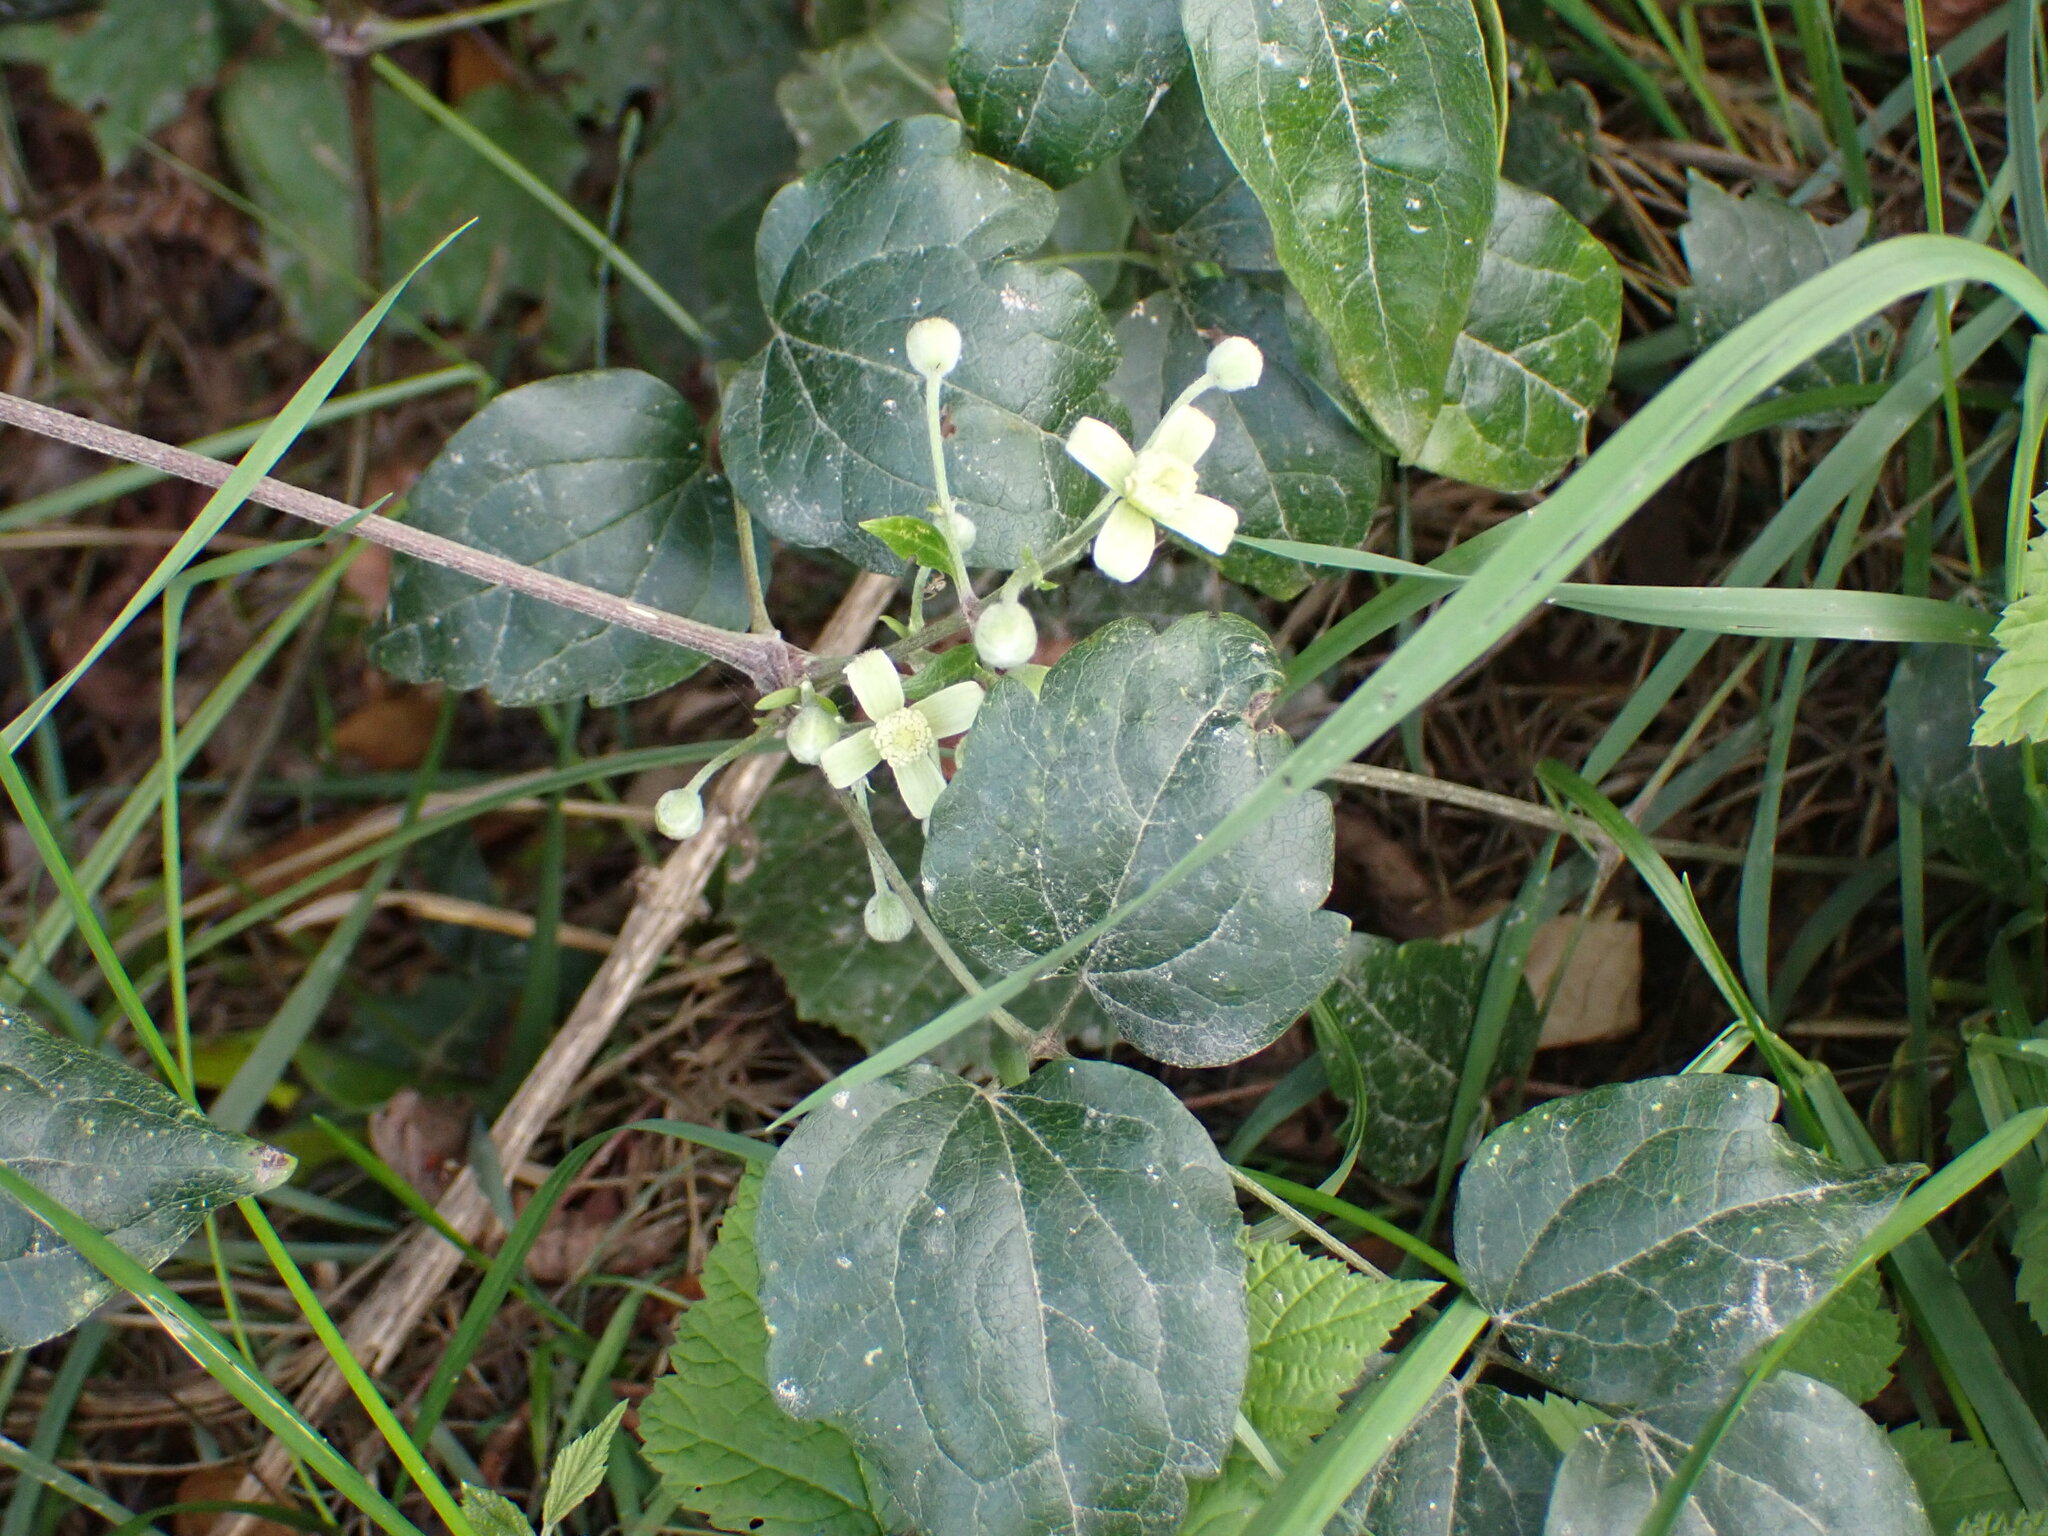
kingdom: Plantae
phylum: Tracheophyta
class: Magnoliopsida
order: Ranunculales
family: Ranunculaceae
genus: Clematis
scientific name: Clematis vitalba
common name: Evergreen clematis
